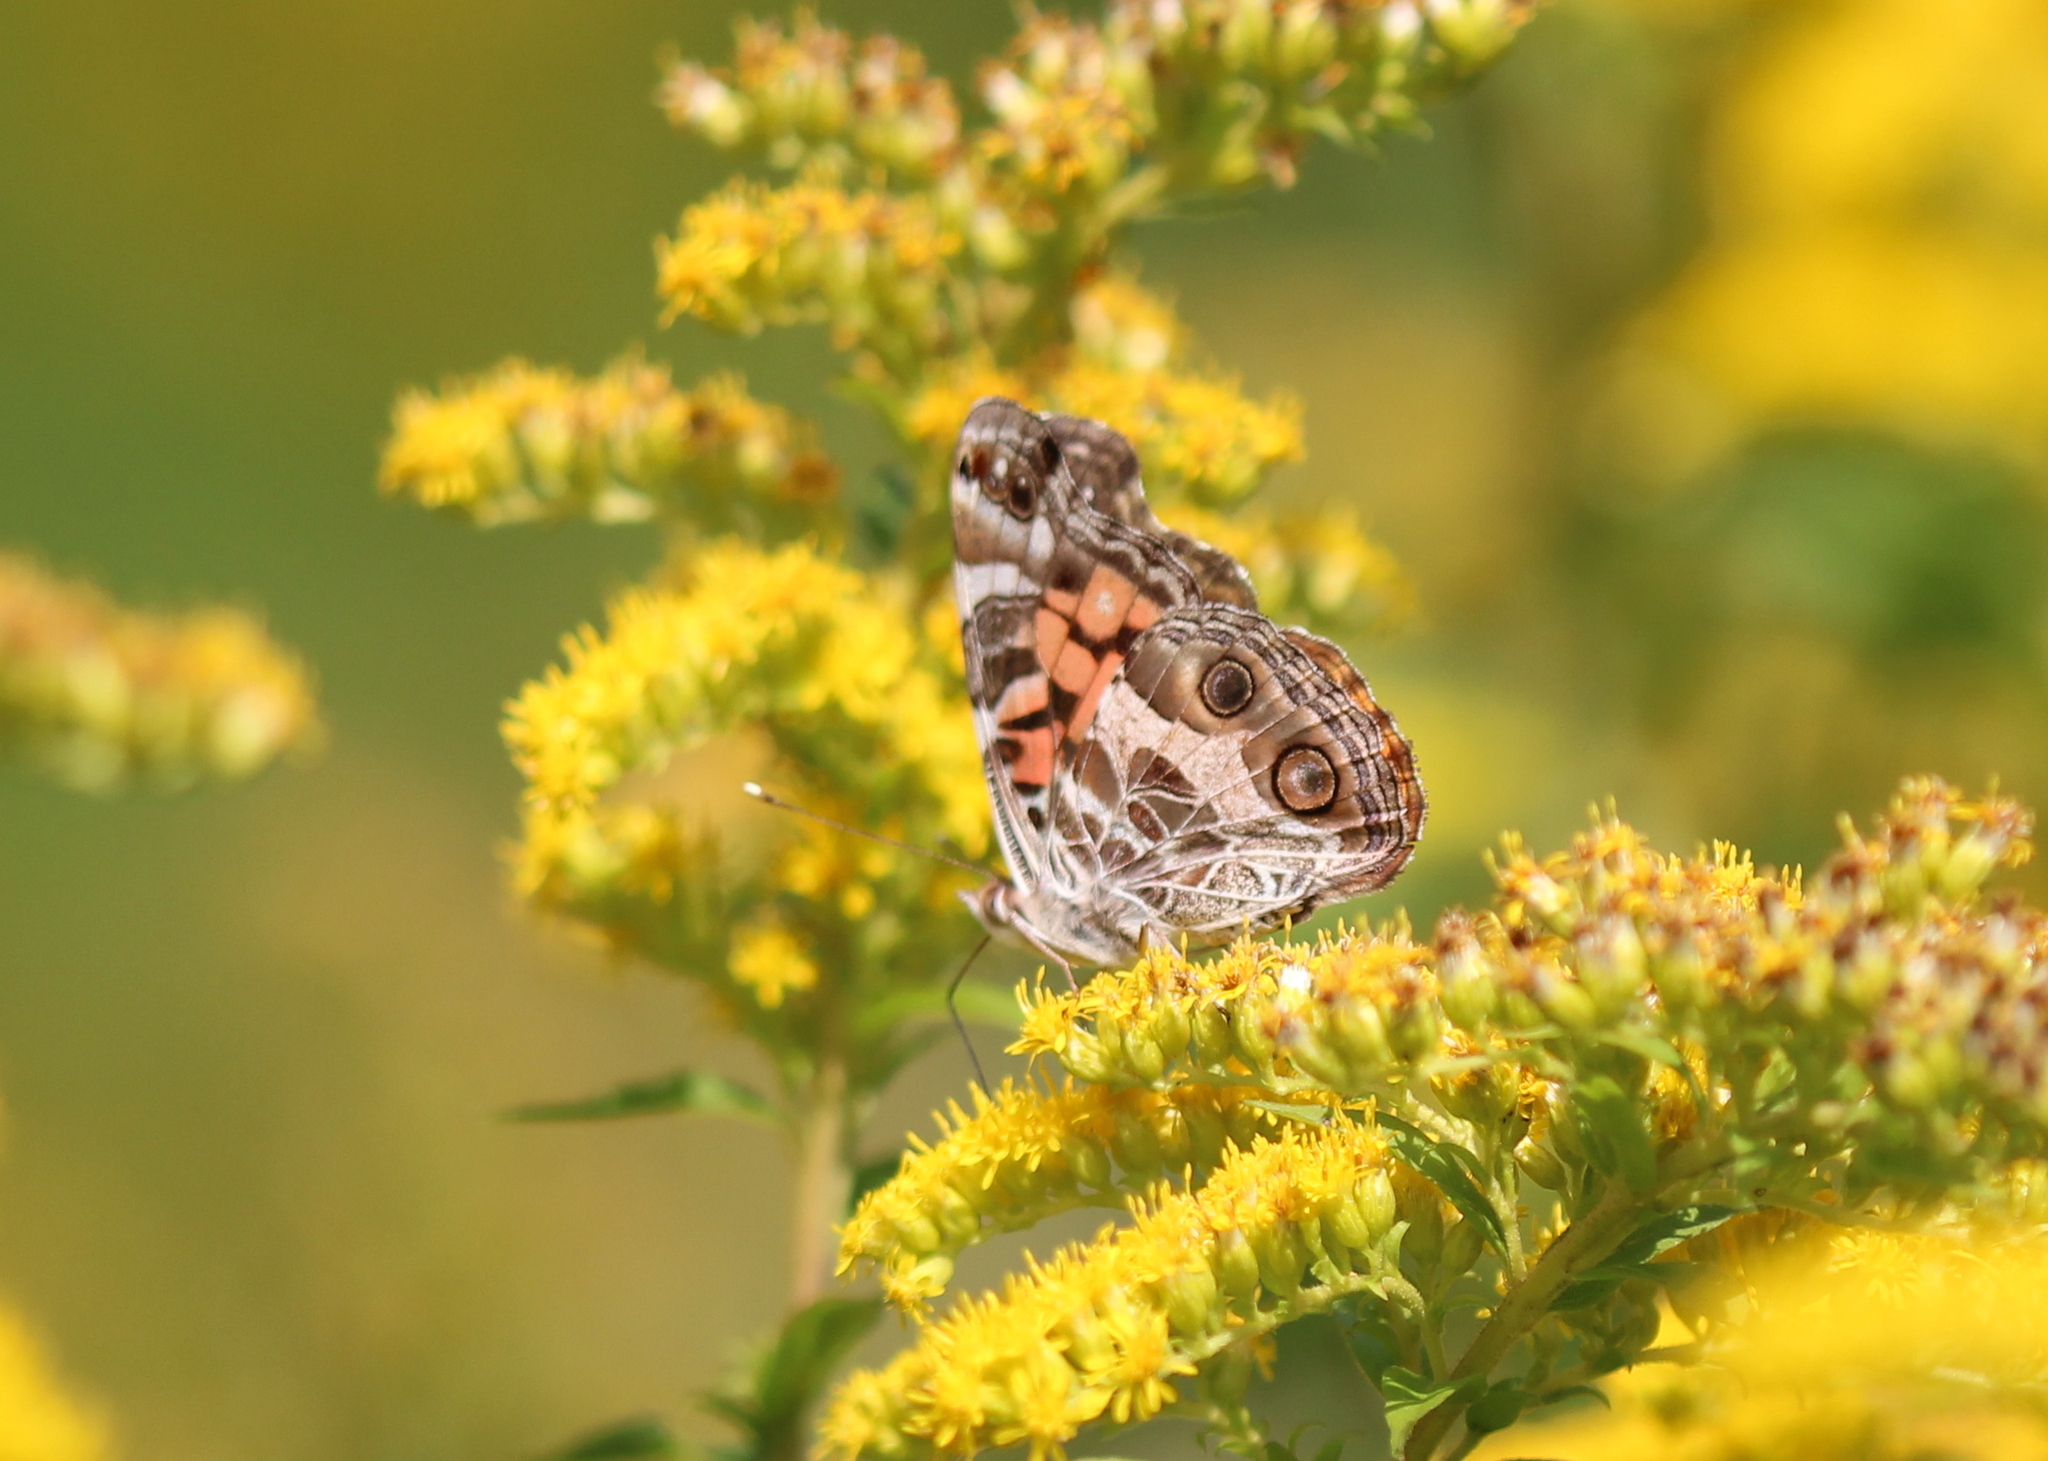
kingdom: Animalia
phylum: Arthropoda
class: Insecta
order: Lepidoptera
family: Nymphalidae
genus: Vanessa
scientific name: Vanessa virginiensis
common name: American lady
